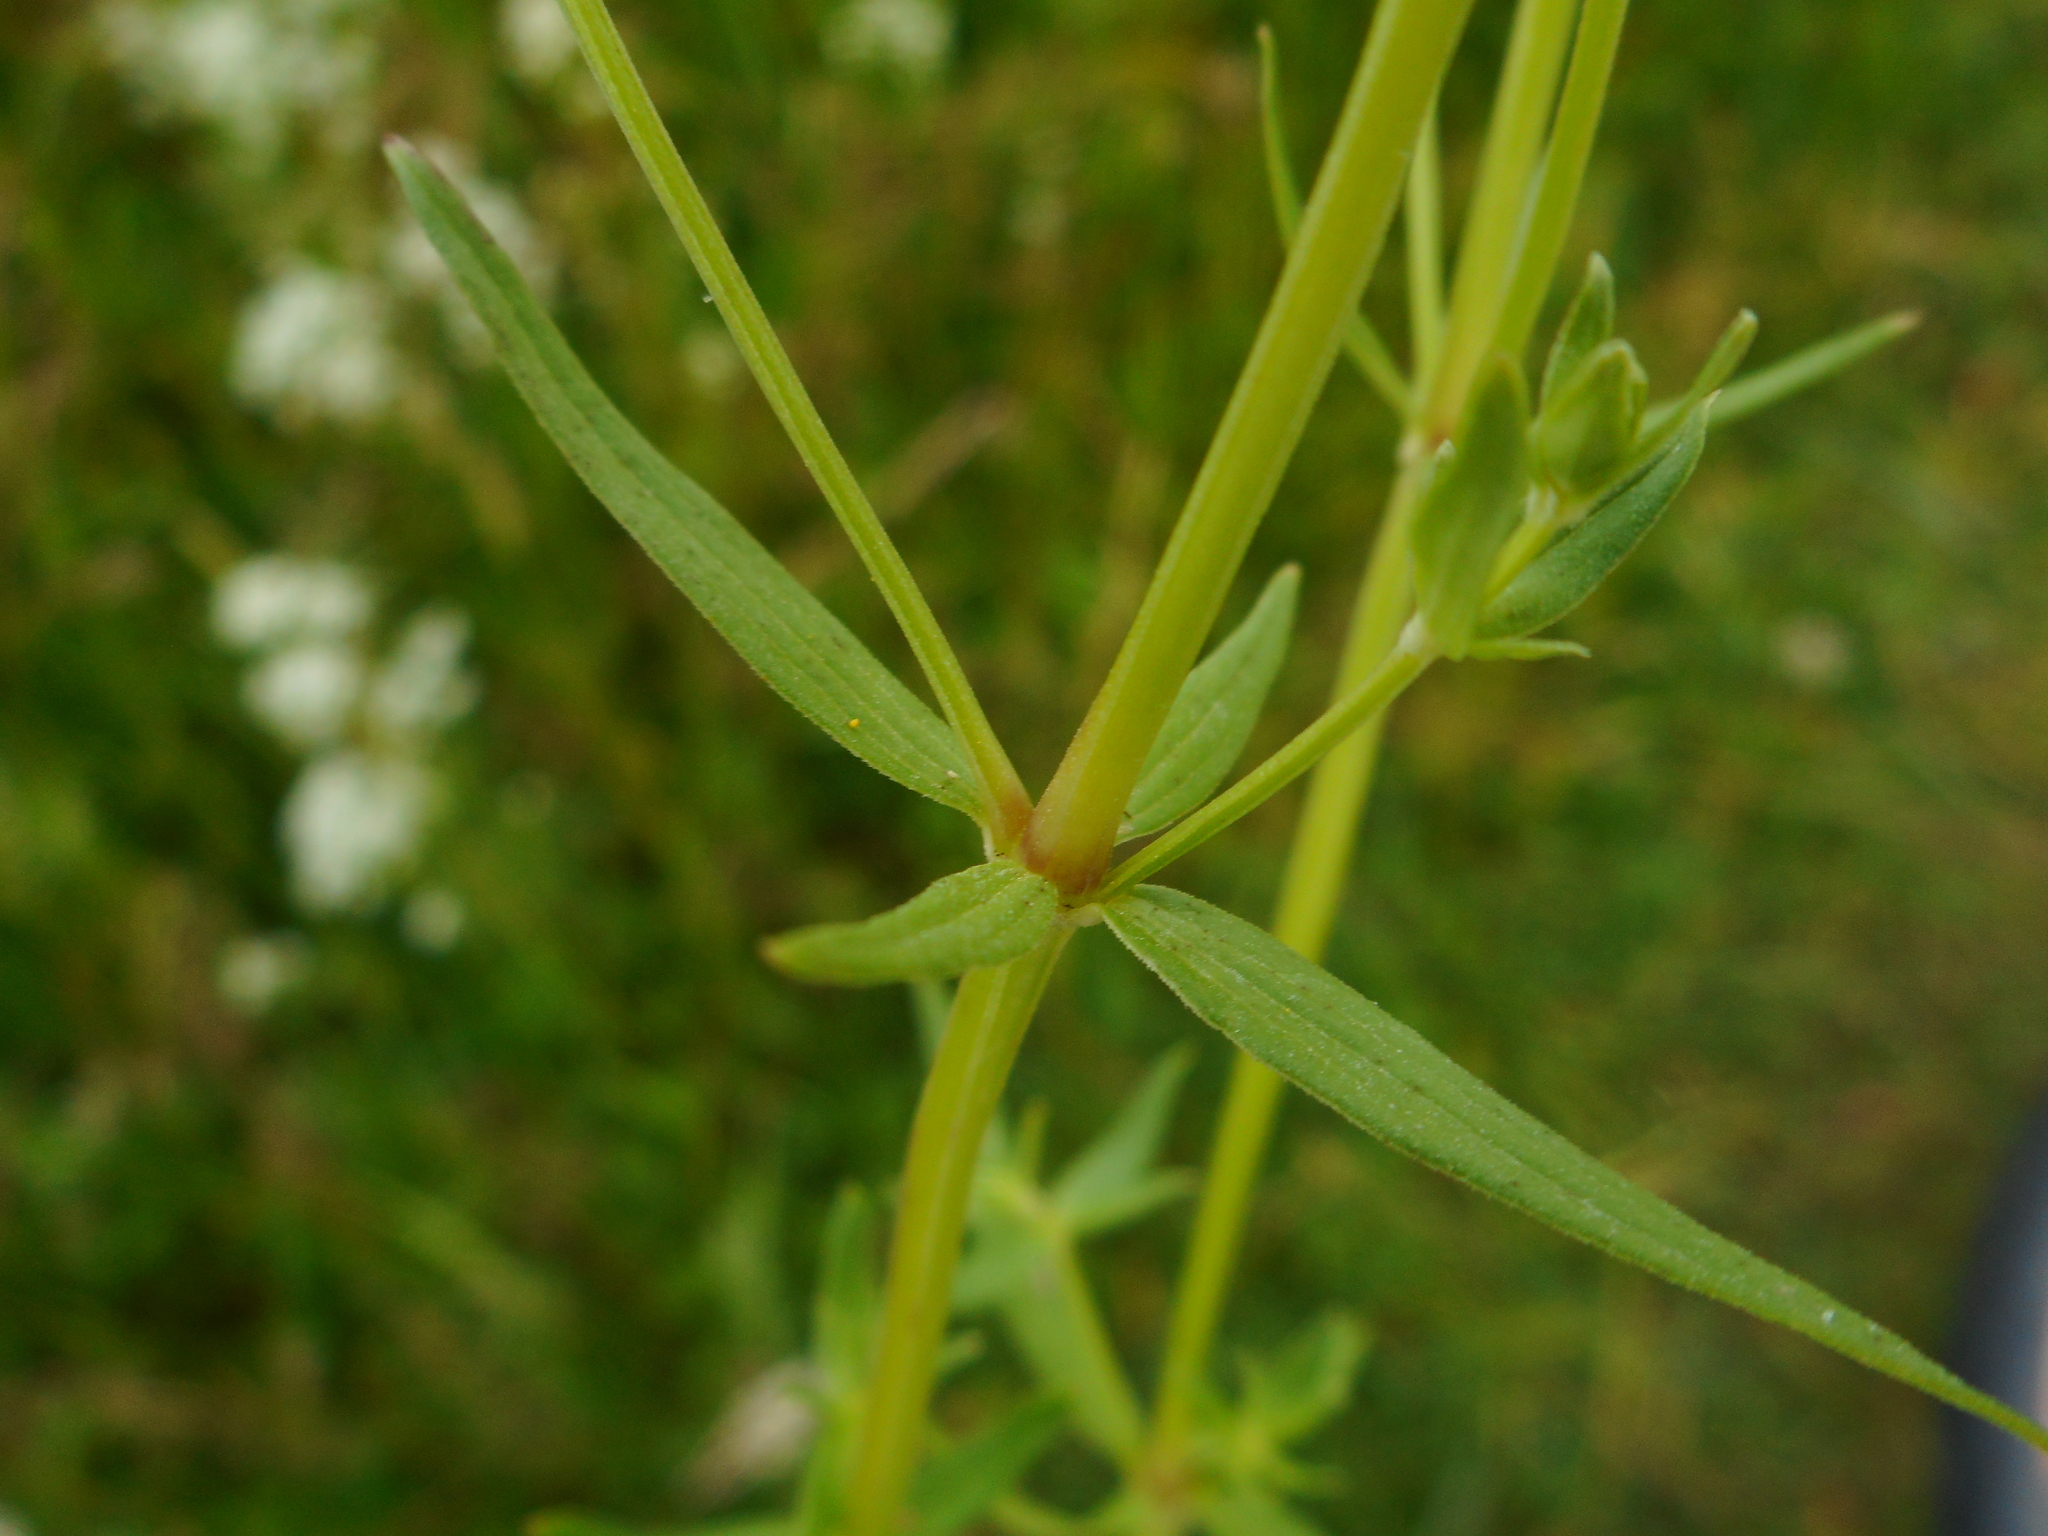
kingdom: Plantae
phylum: Tracheophyta
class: Magnoliopsida
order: Gentianales
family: Rubiaceae
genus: Galium
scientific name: Galium boreale
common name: Northern bedstraw
